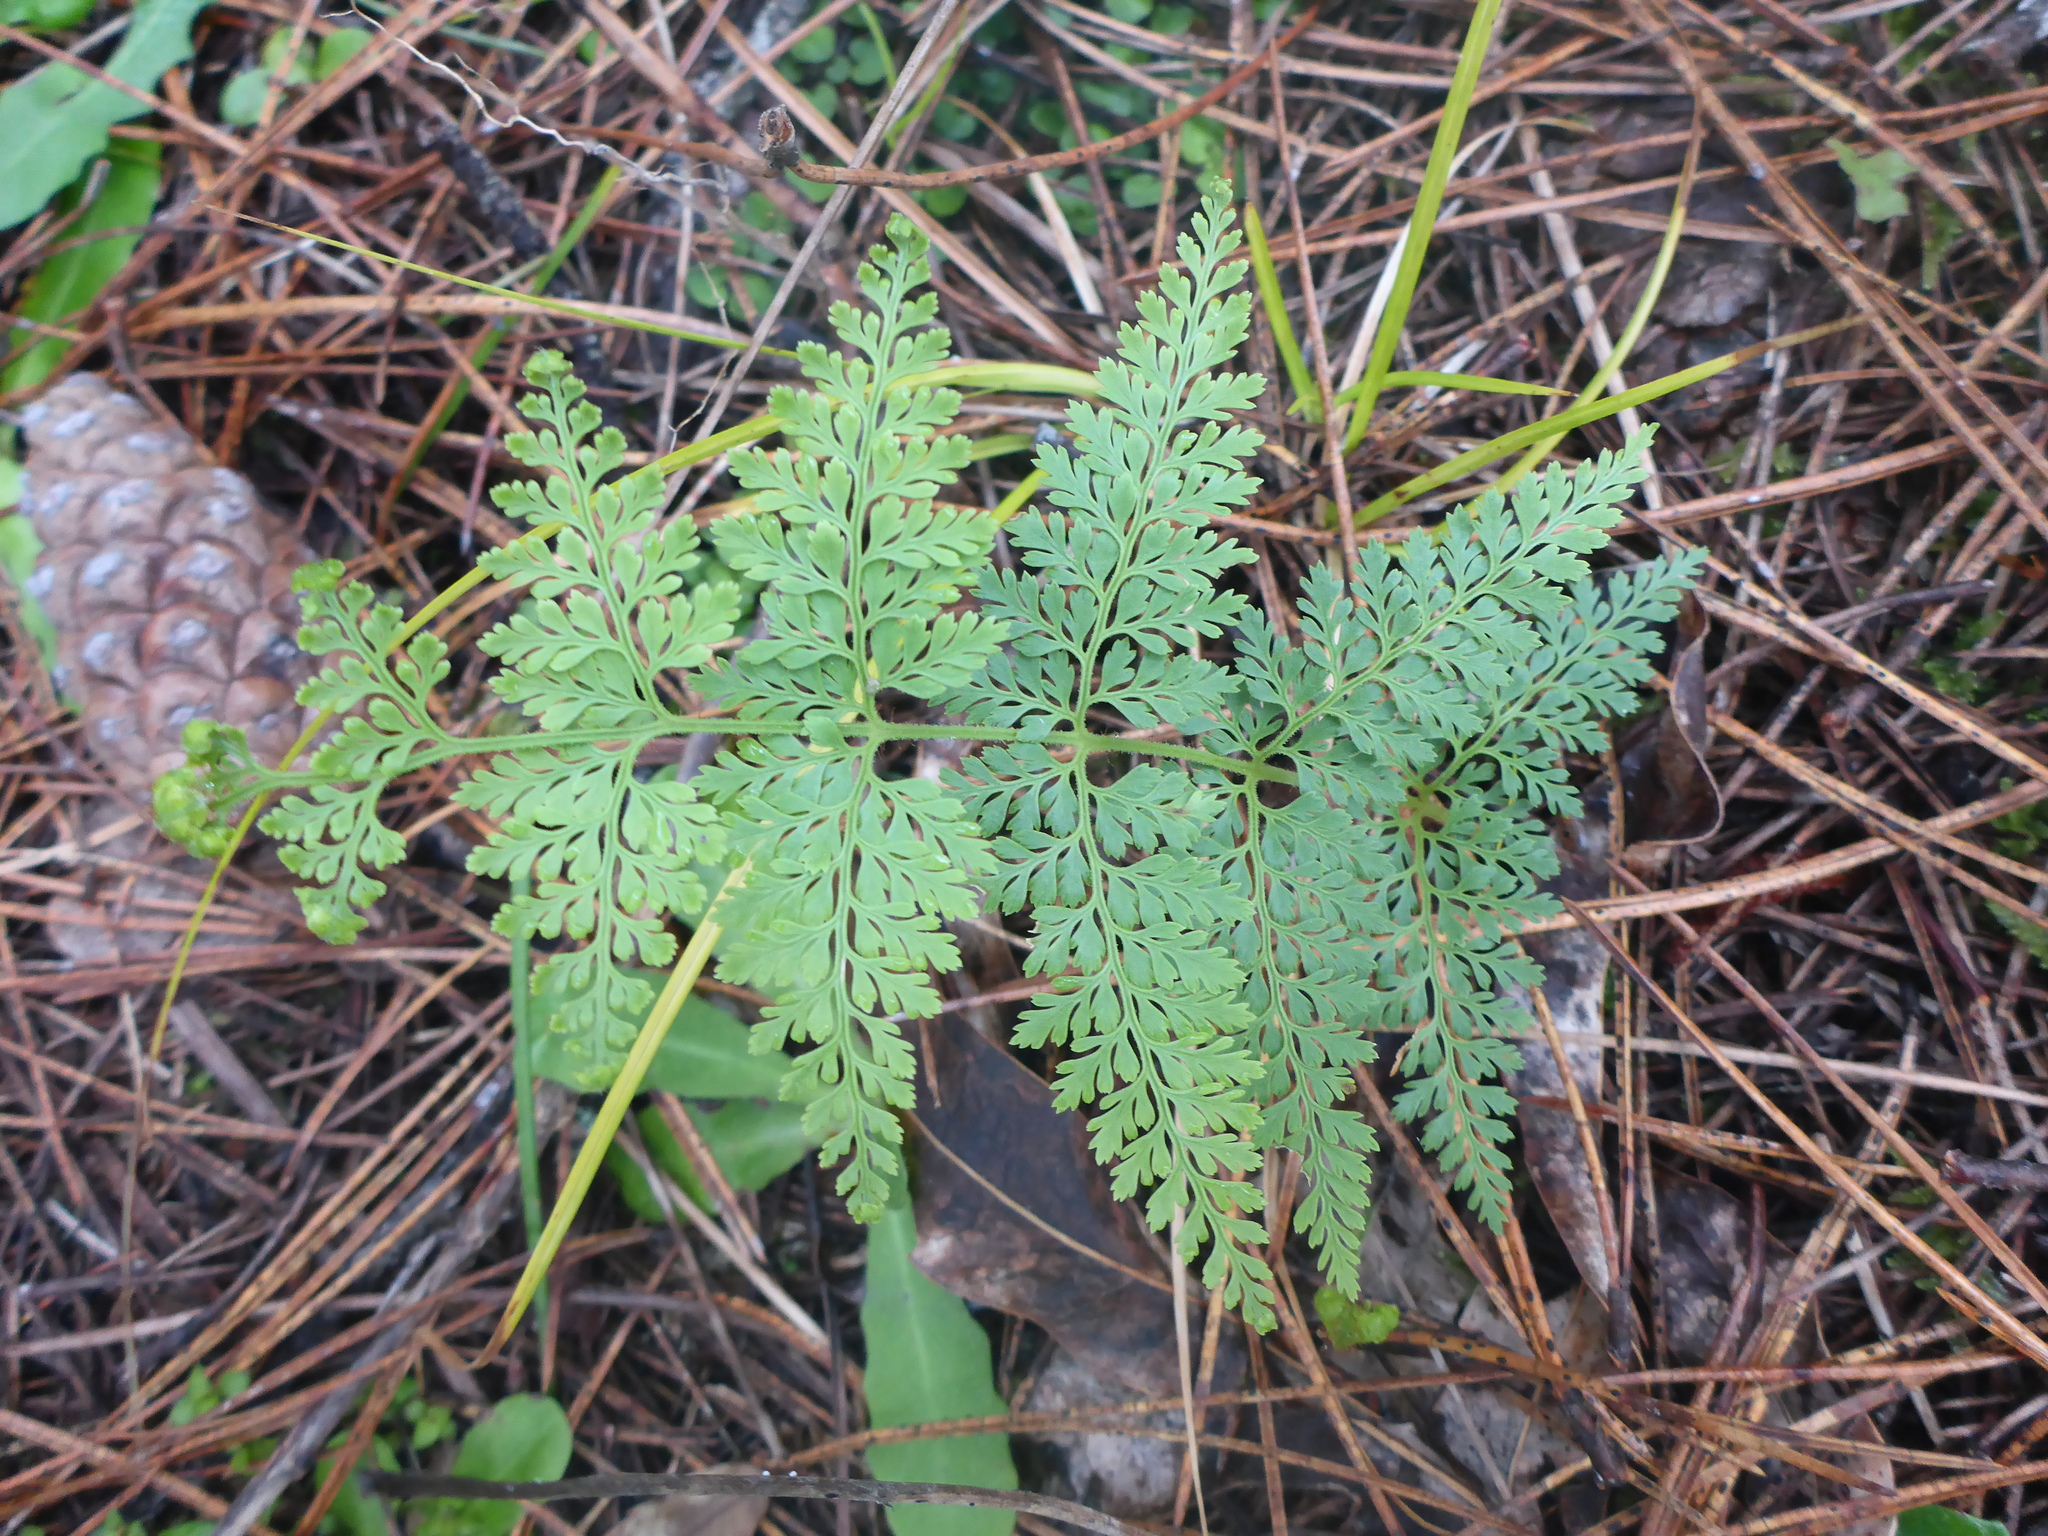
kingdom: Plantae
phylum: Tracheophyta
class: Polypodiopsida
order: Polypodiales
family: Dennstaedtiaceae
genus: Paesia
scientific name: Paesia scaberula
